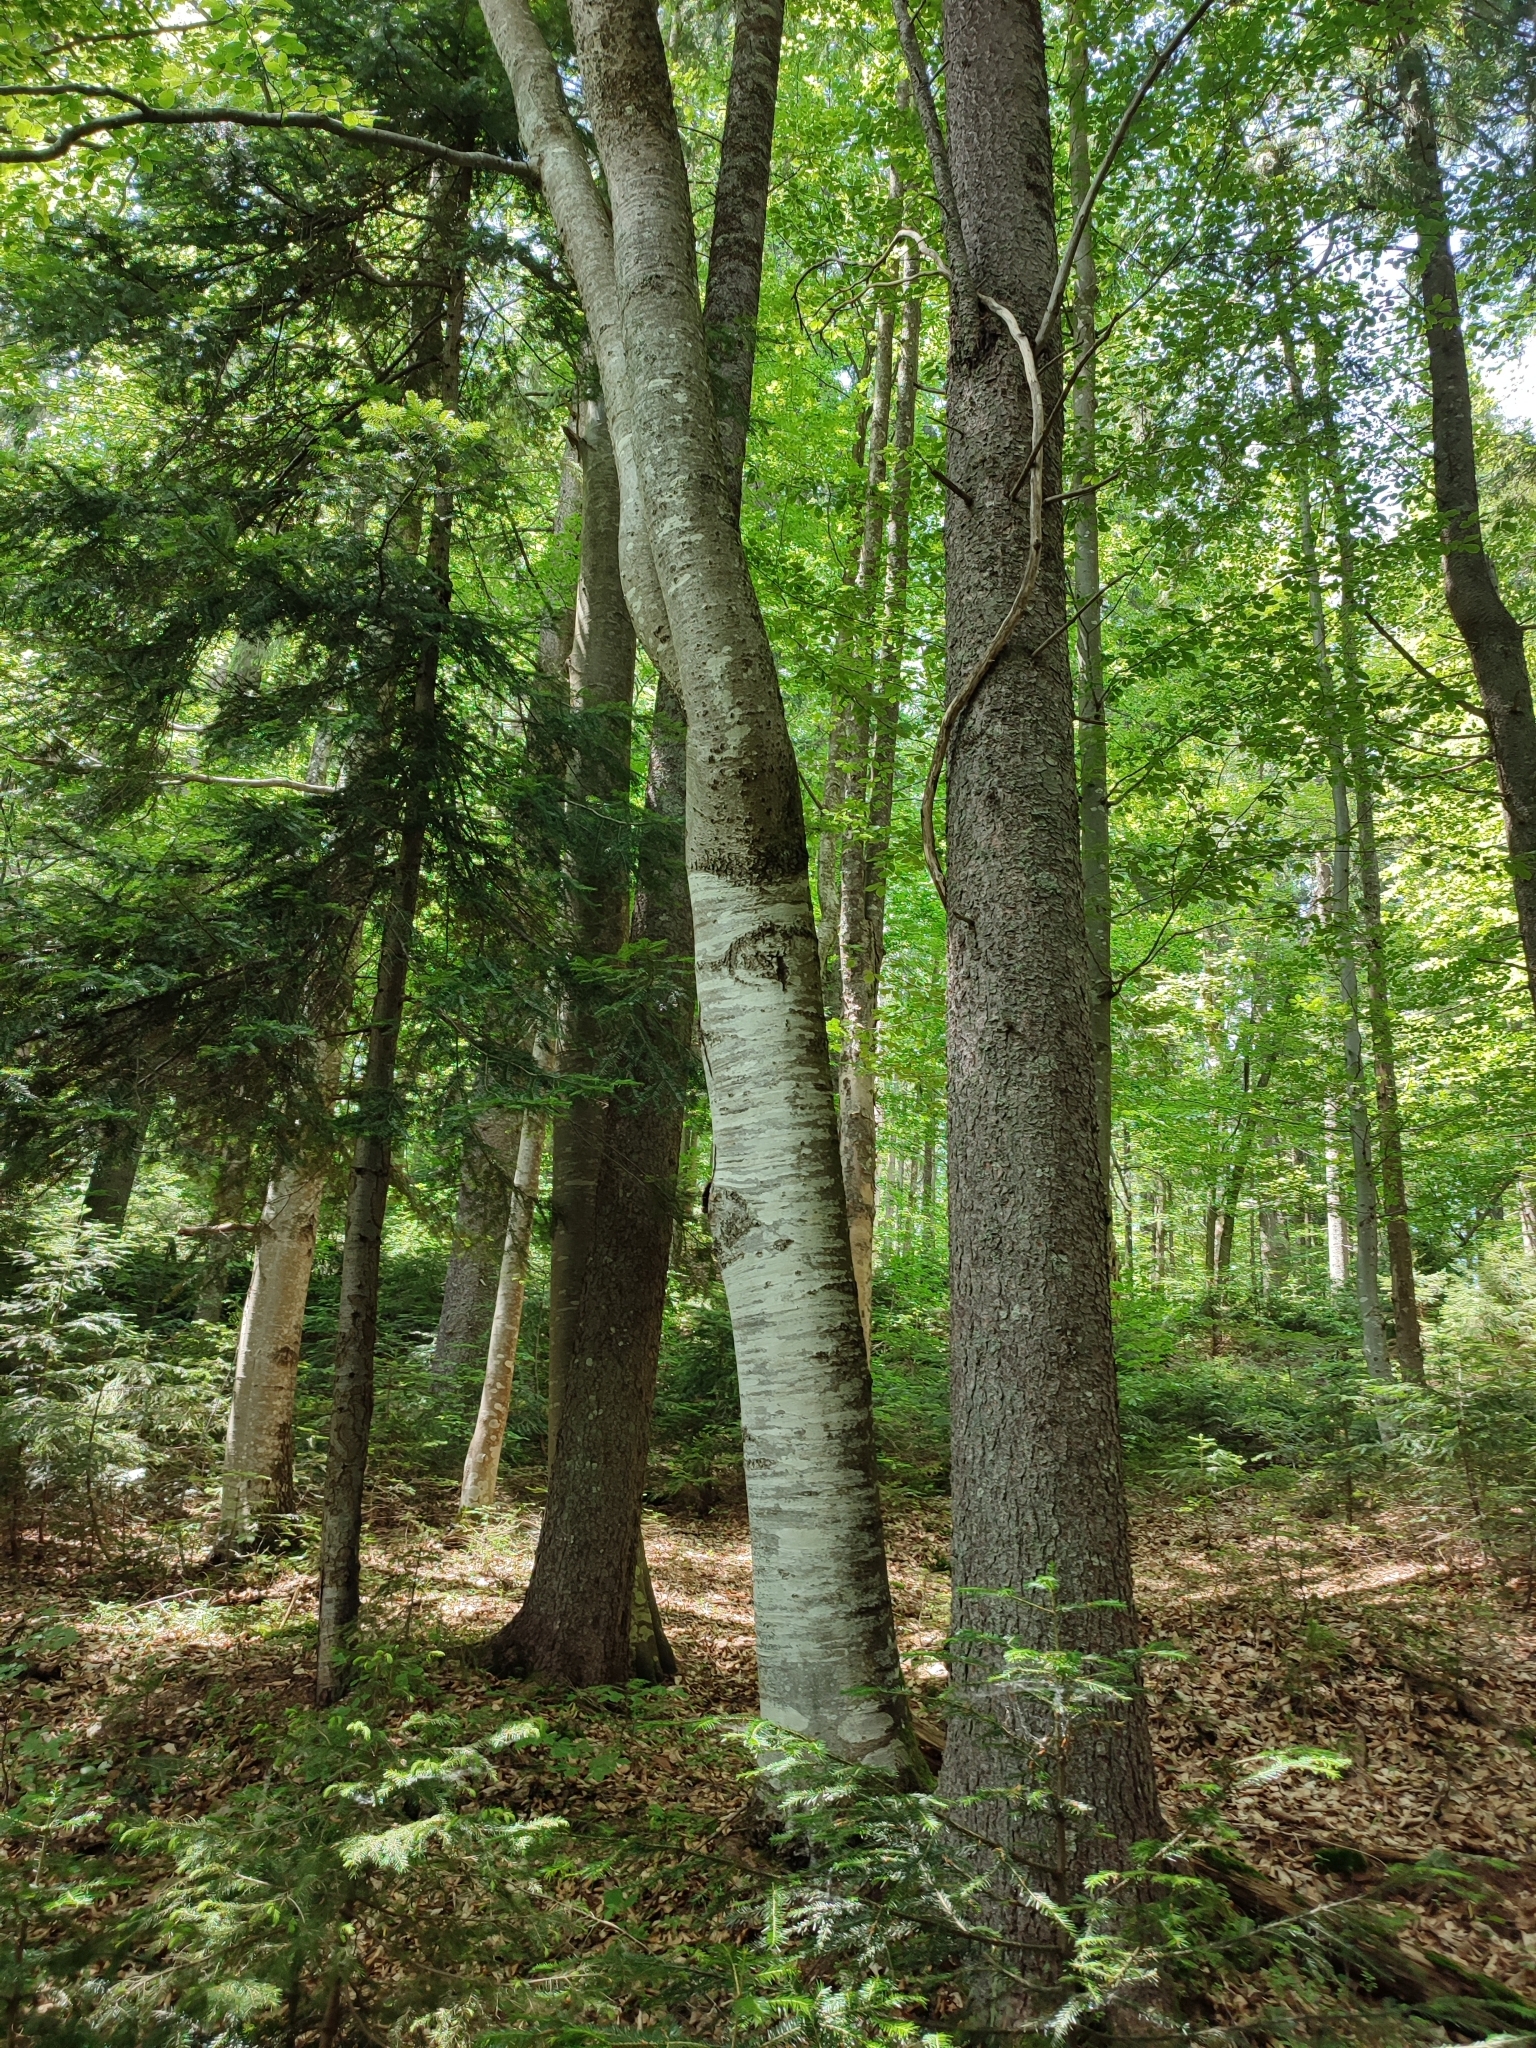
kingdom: Plantae
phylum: Tracheophyta
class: Magnoliopsida
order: Fagales
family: Fagaceae
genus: Fagus
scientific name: Fagus sylvatica
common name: Beech
